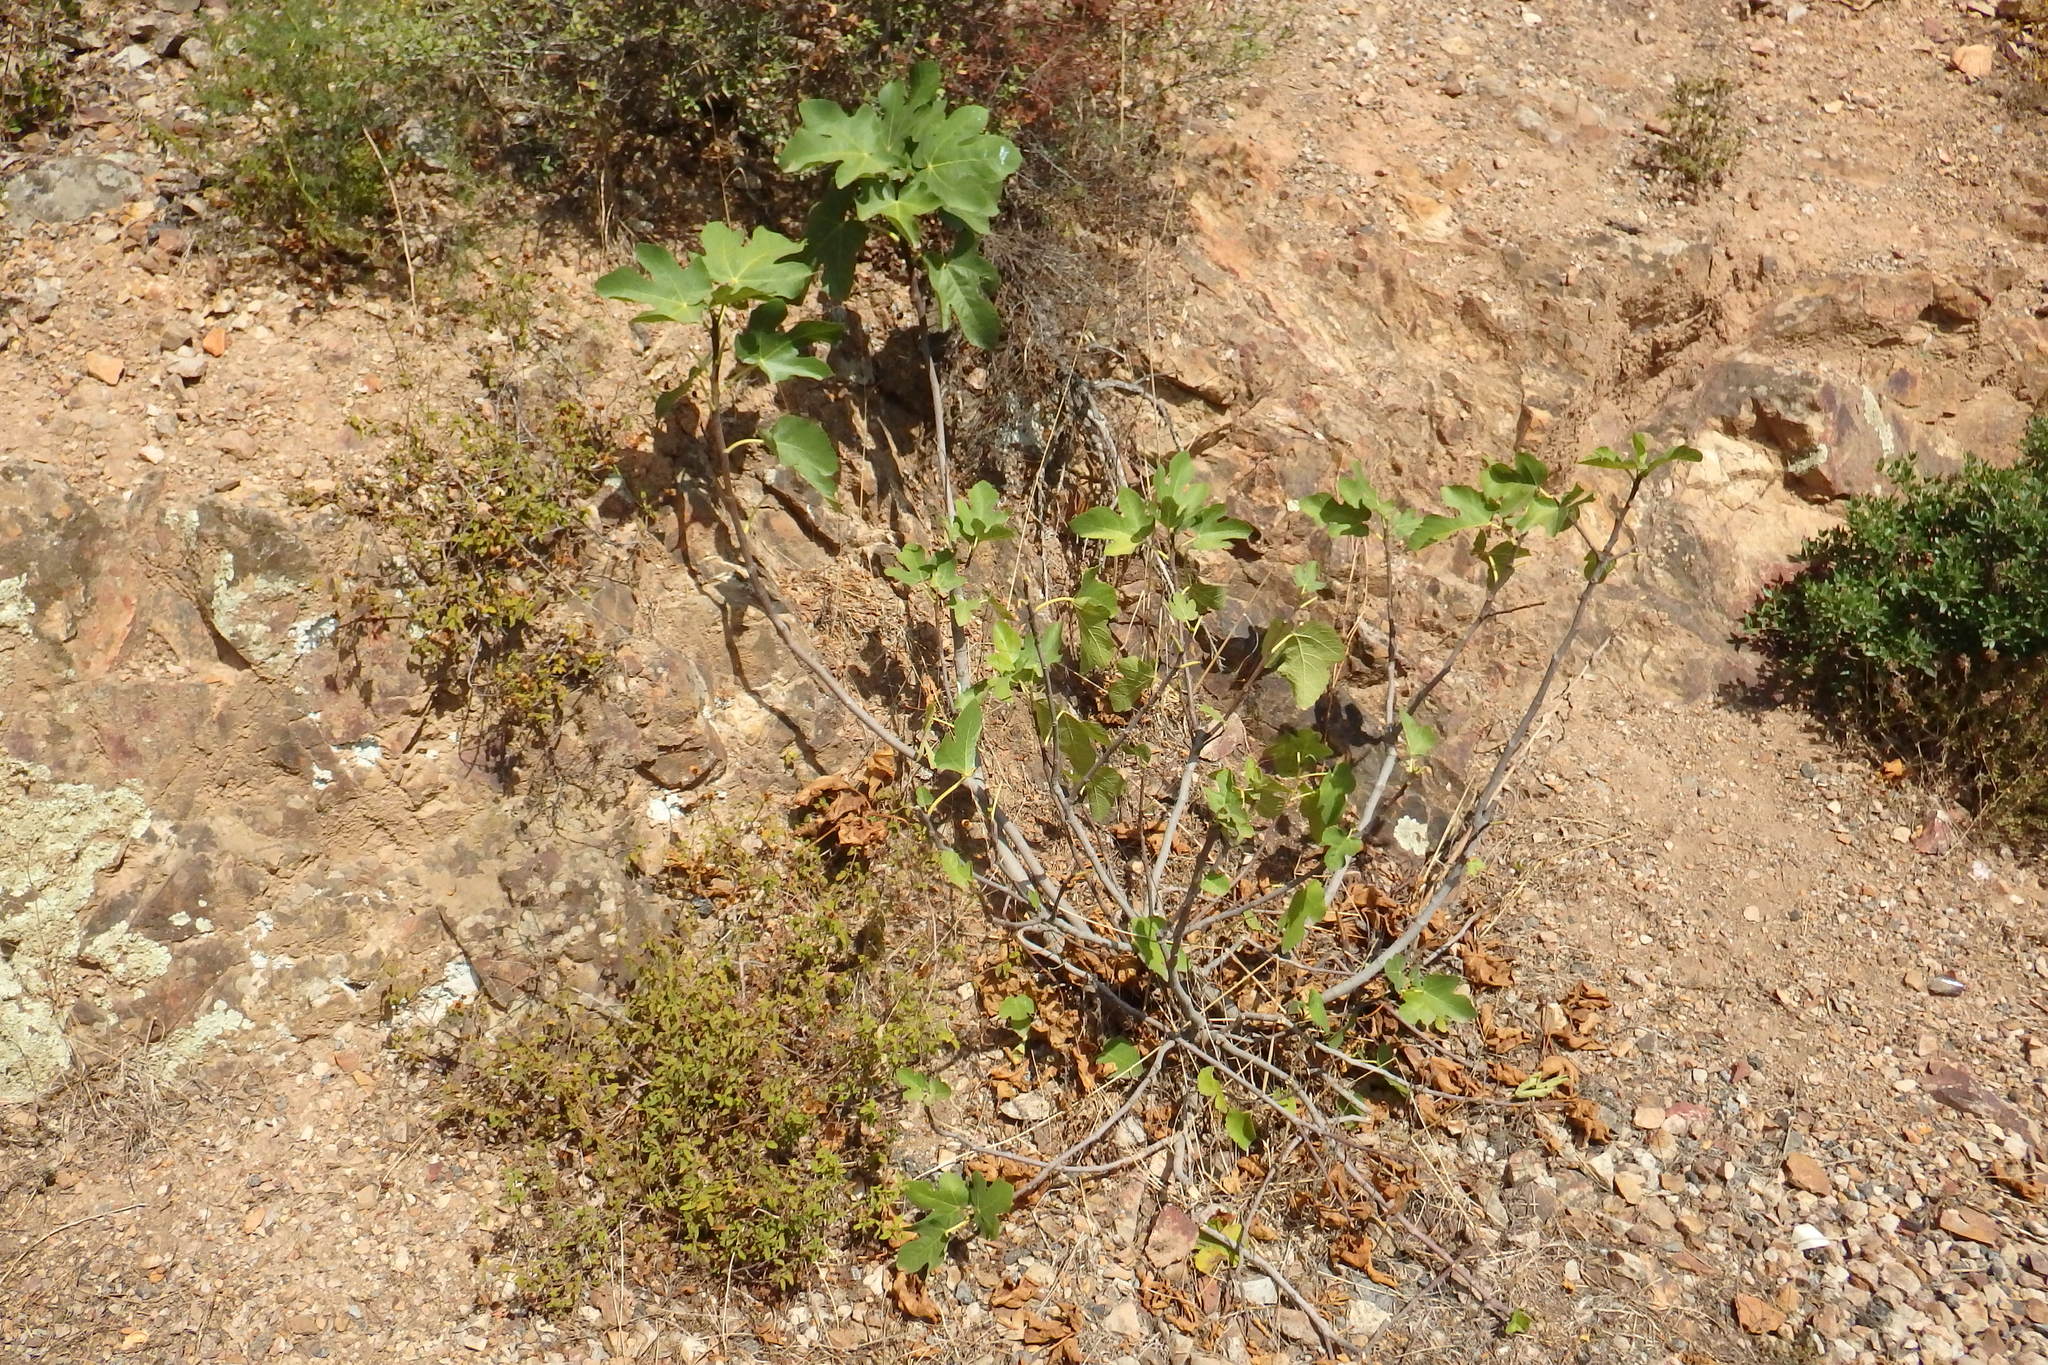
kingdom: Plantae
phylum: Tracheophyta
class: Magnoliopsida
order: Rosales
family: Moraceae
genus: Ficus
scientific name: Ficus carica
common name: Fig
